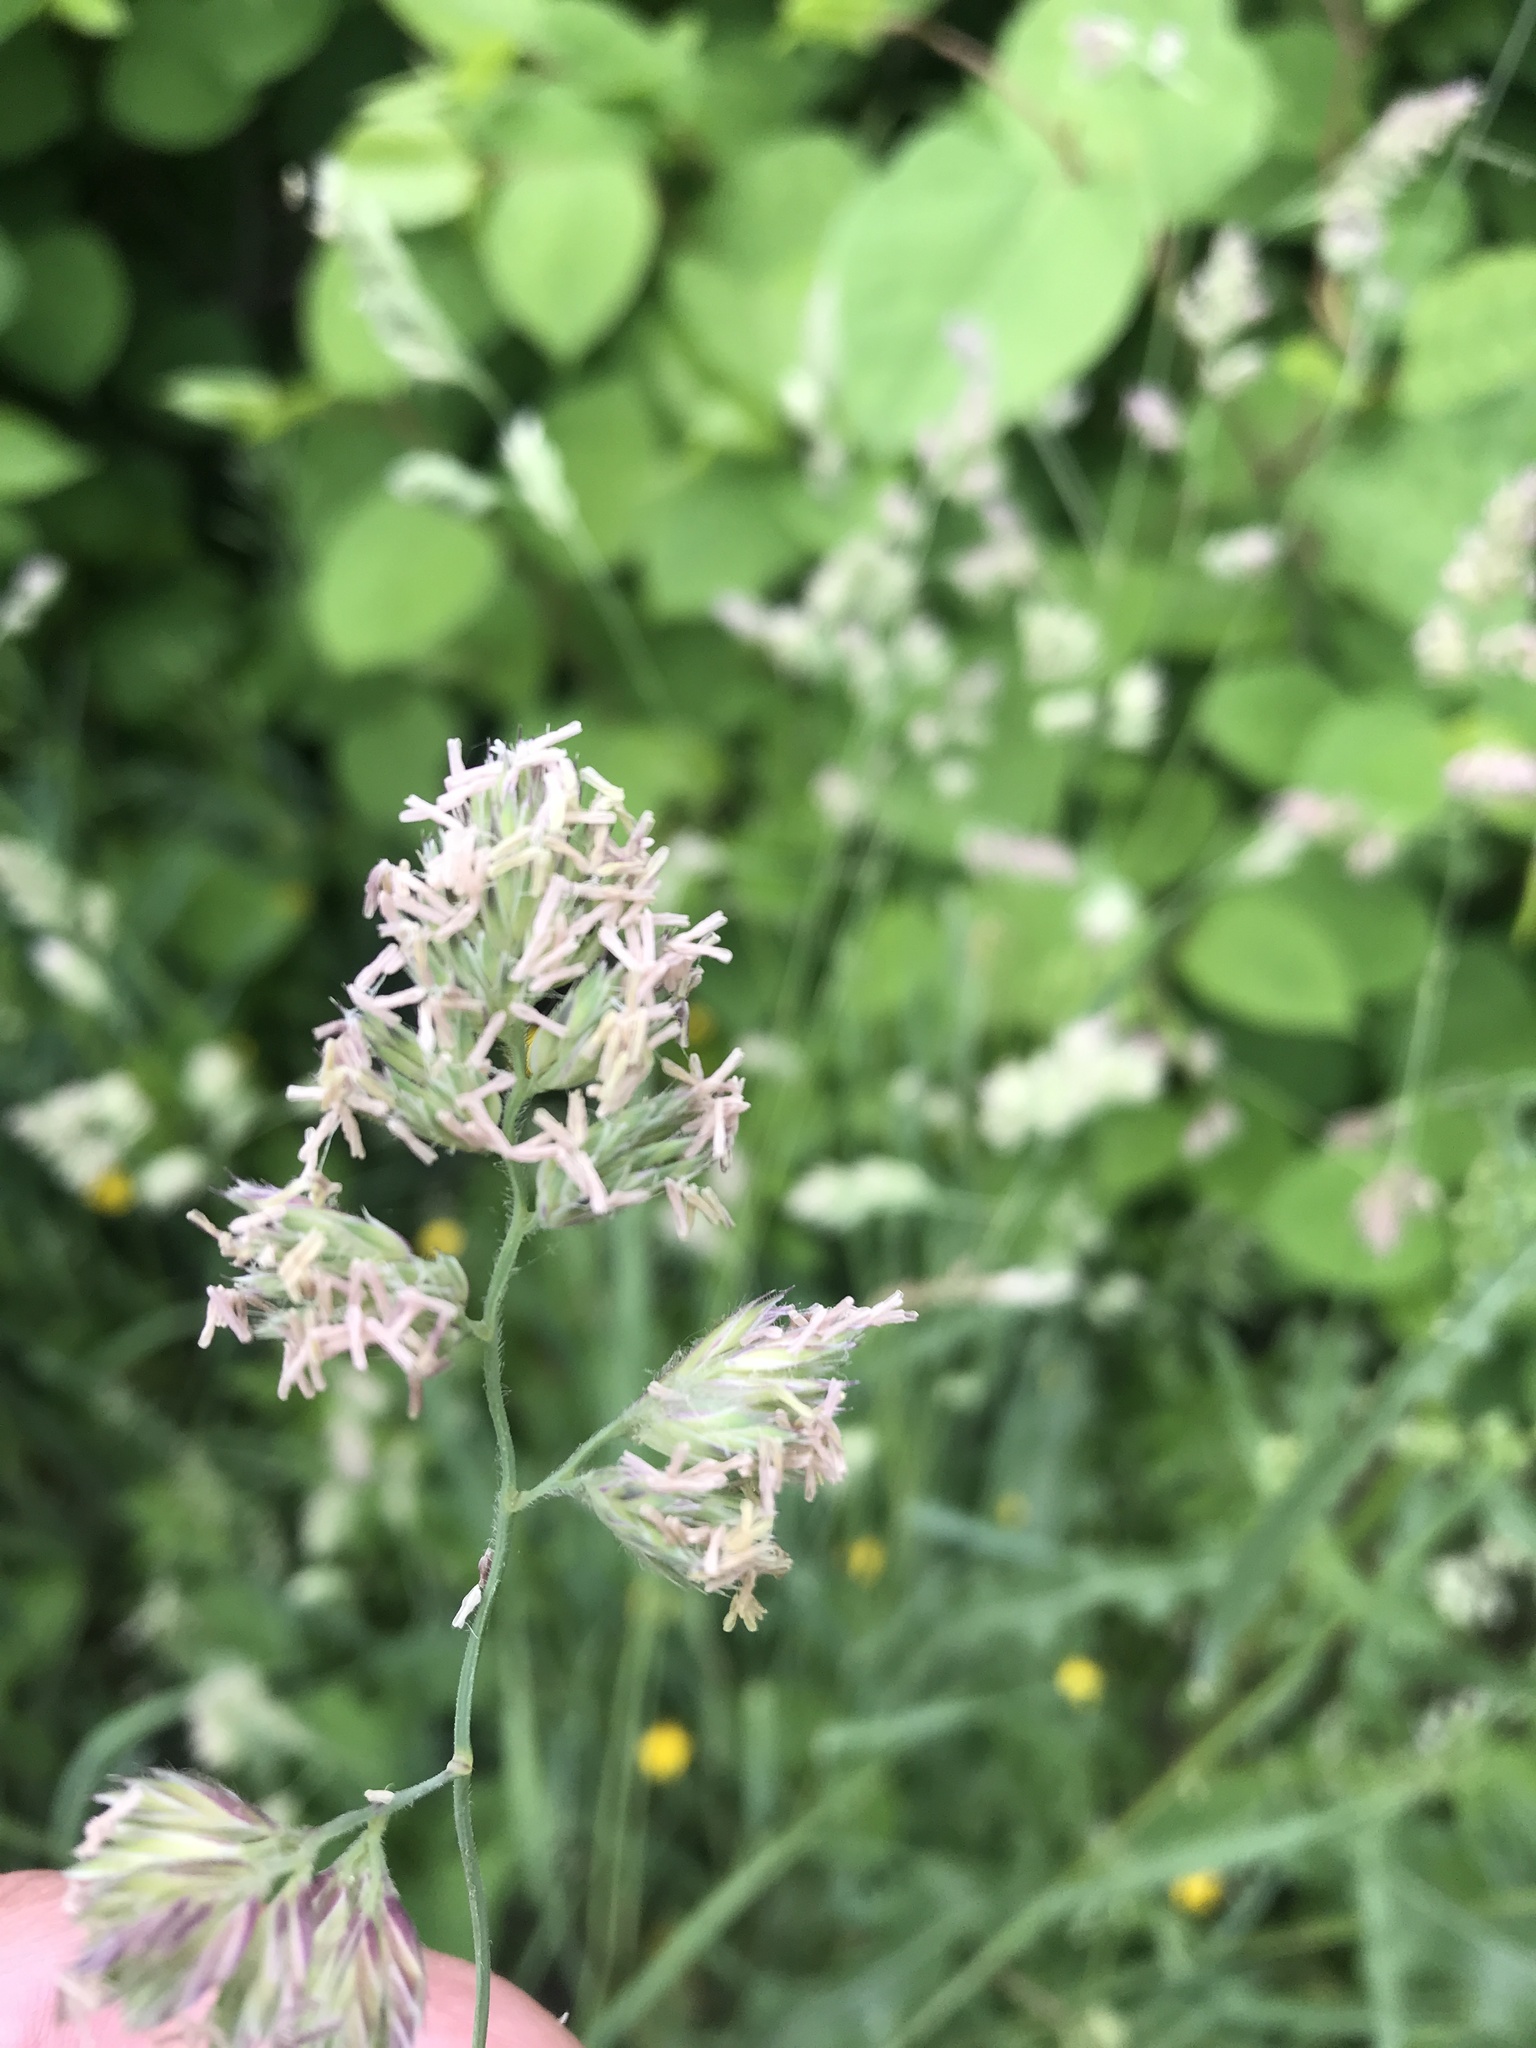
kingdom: Plantae
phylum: Tracheophyta
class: Liliopsida
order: Poales
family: Poaceae
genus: Dactylis
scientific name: Dactylis glomerata
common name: Orchardgrass
